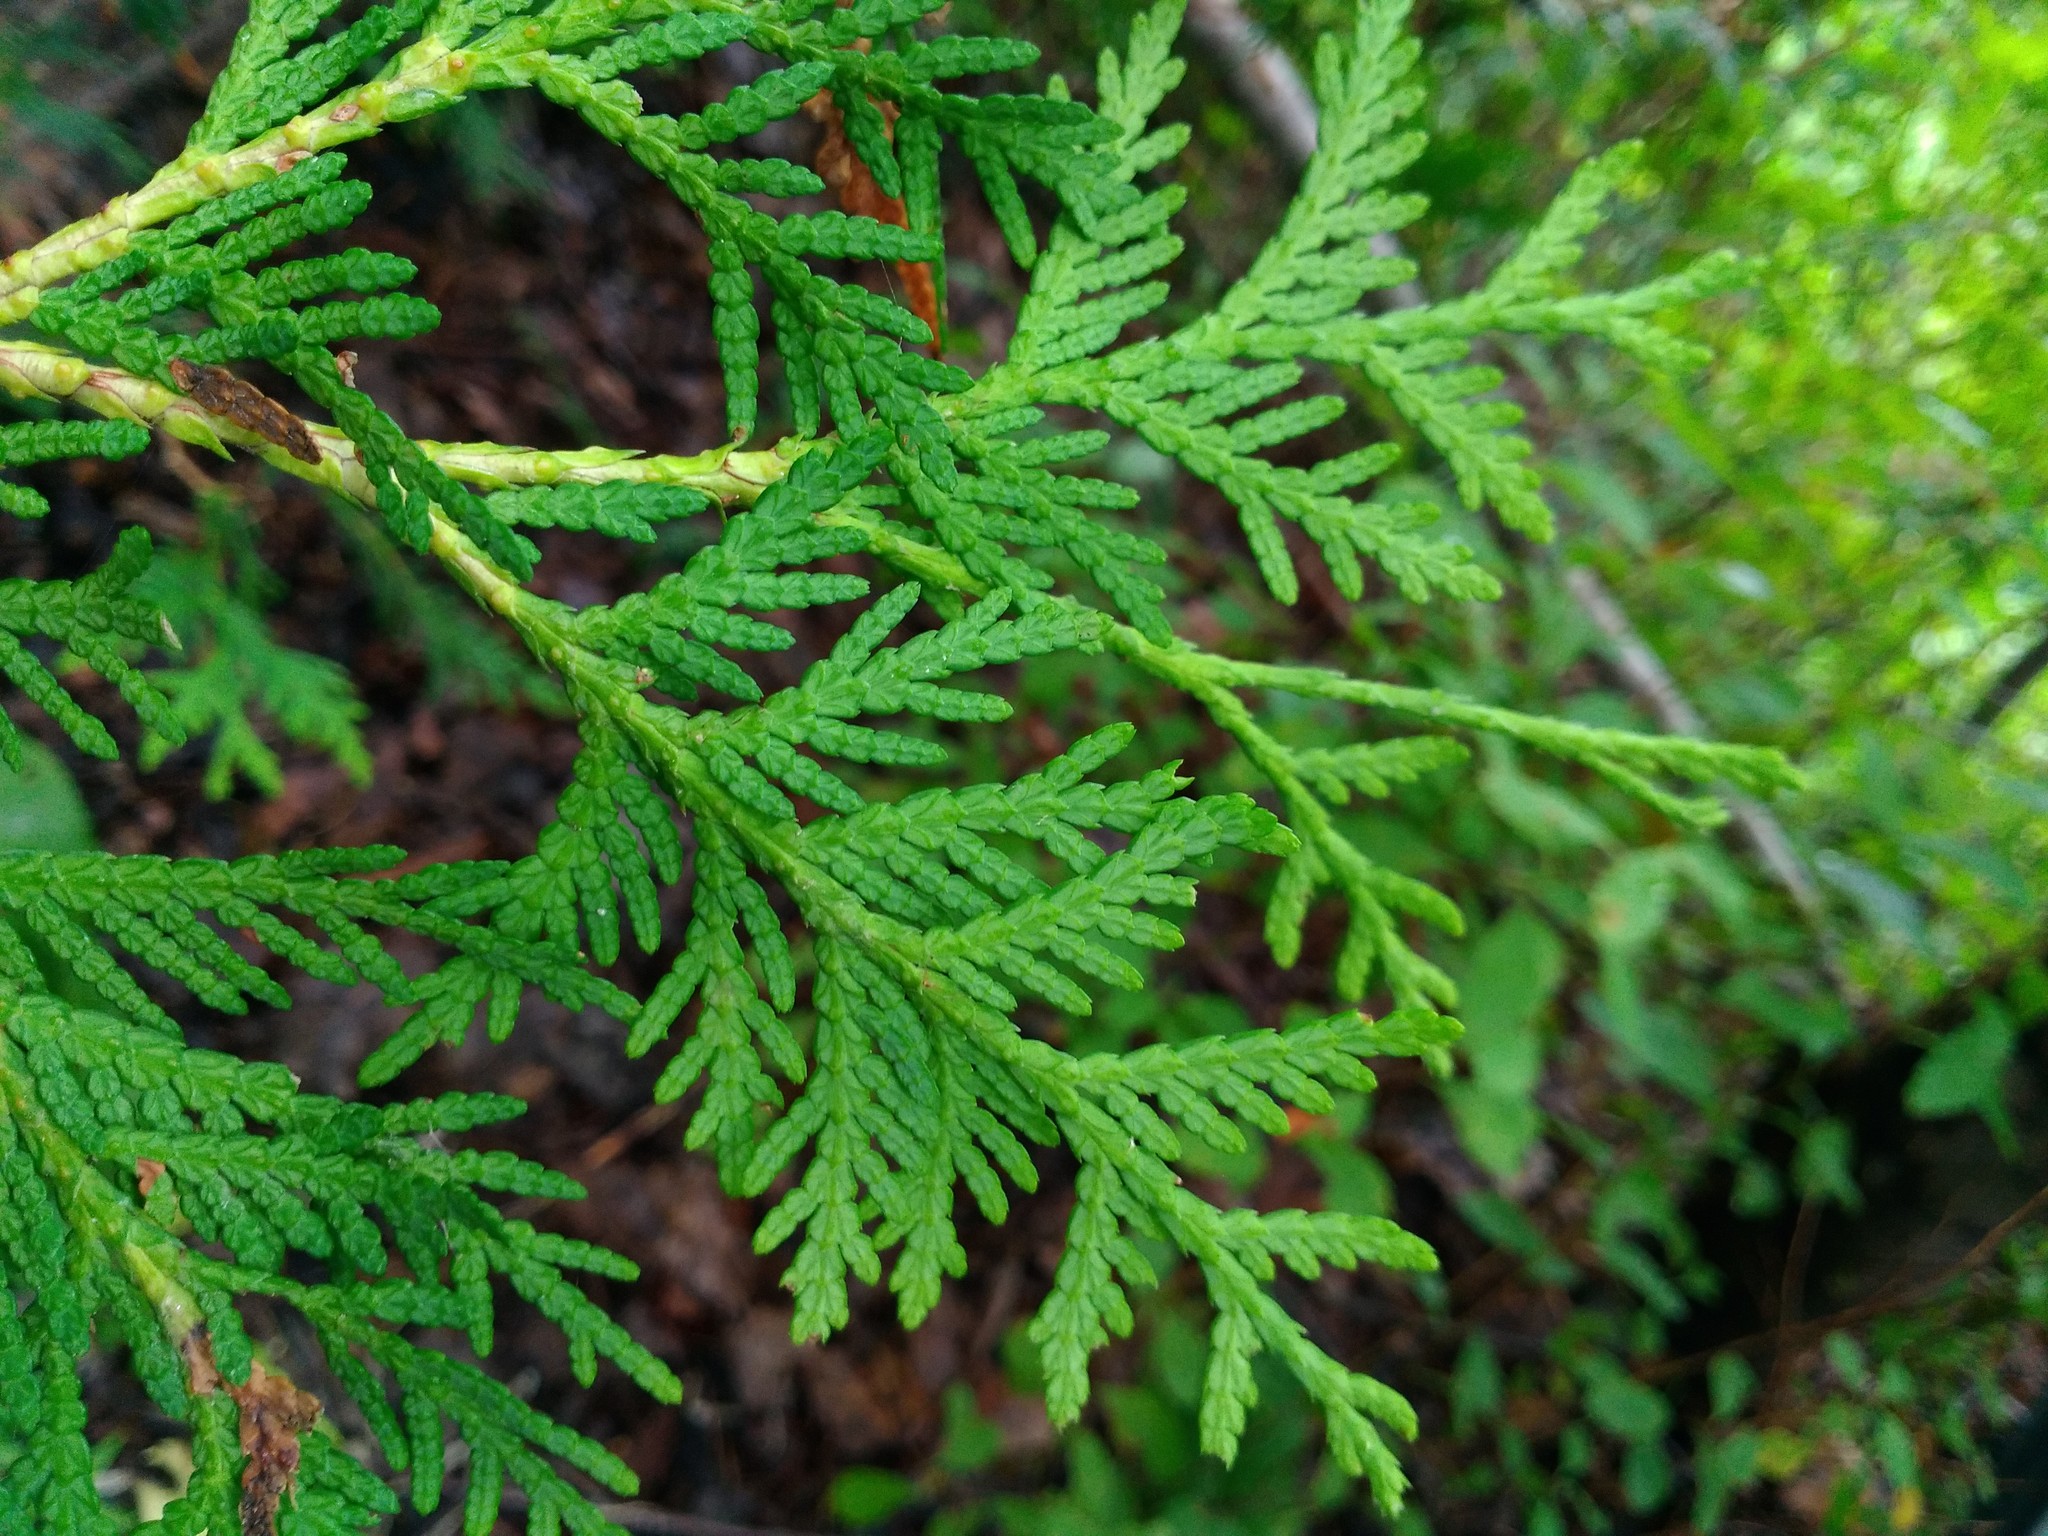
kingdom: Plantae
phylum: Tracheophyta
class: Pinopsida
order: Pinales
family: Cupressaceae
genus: Thuja
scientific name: Thuja occidentalis
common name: Northern white-cedar
